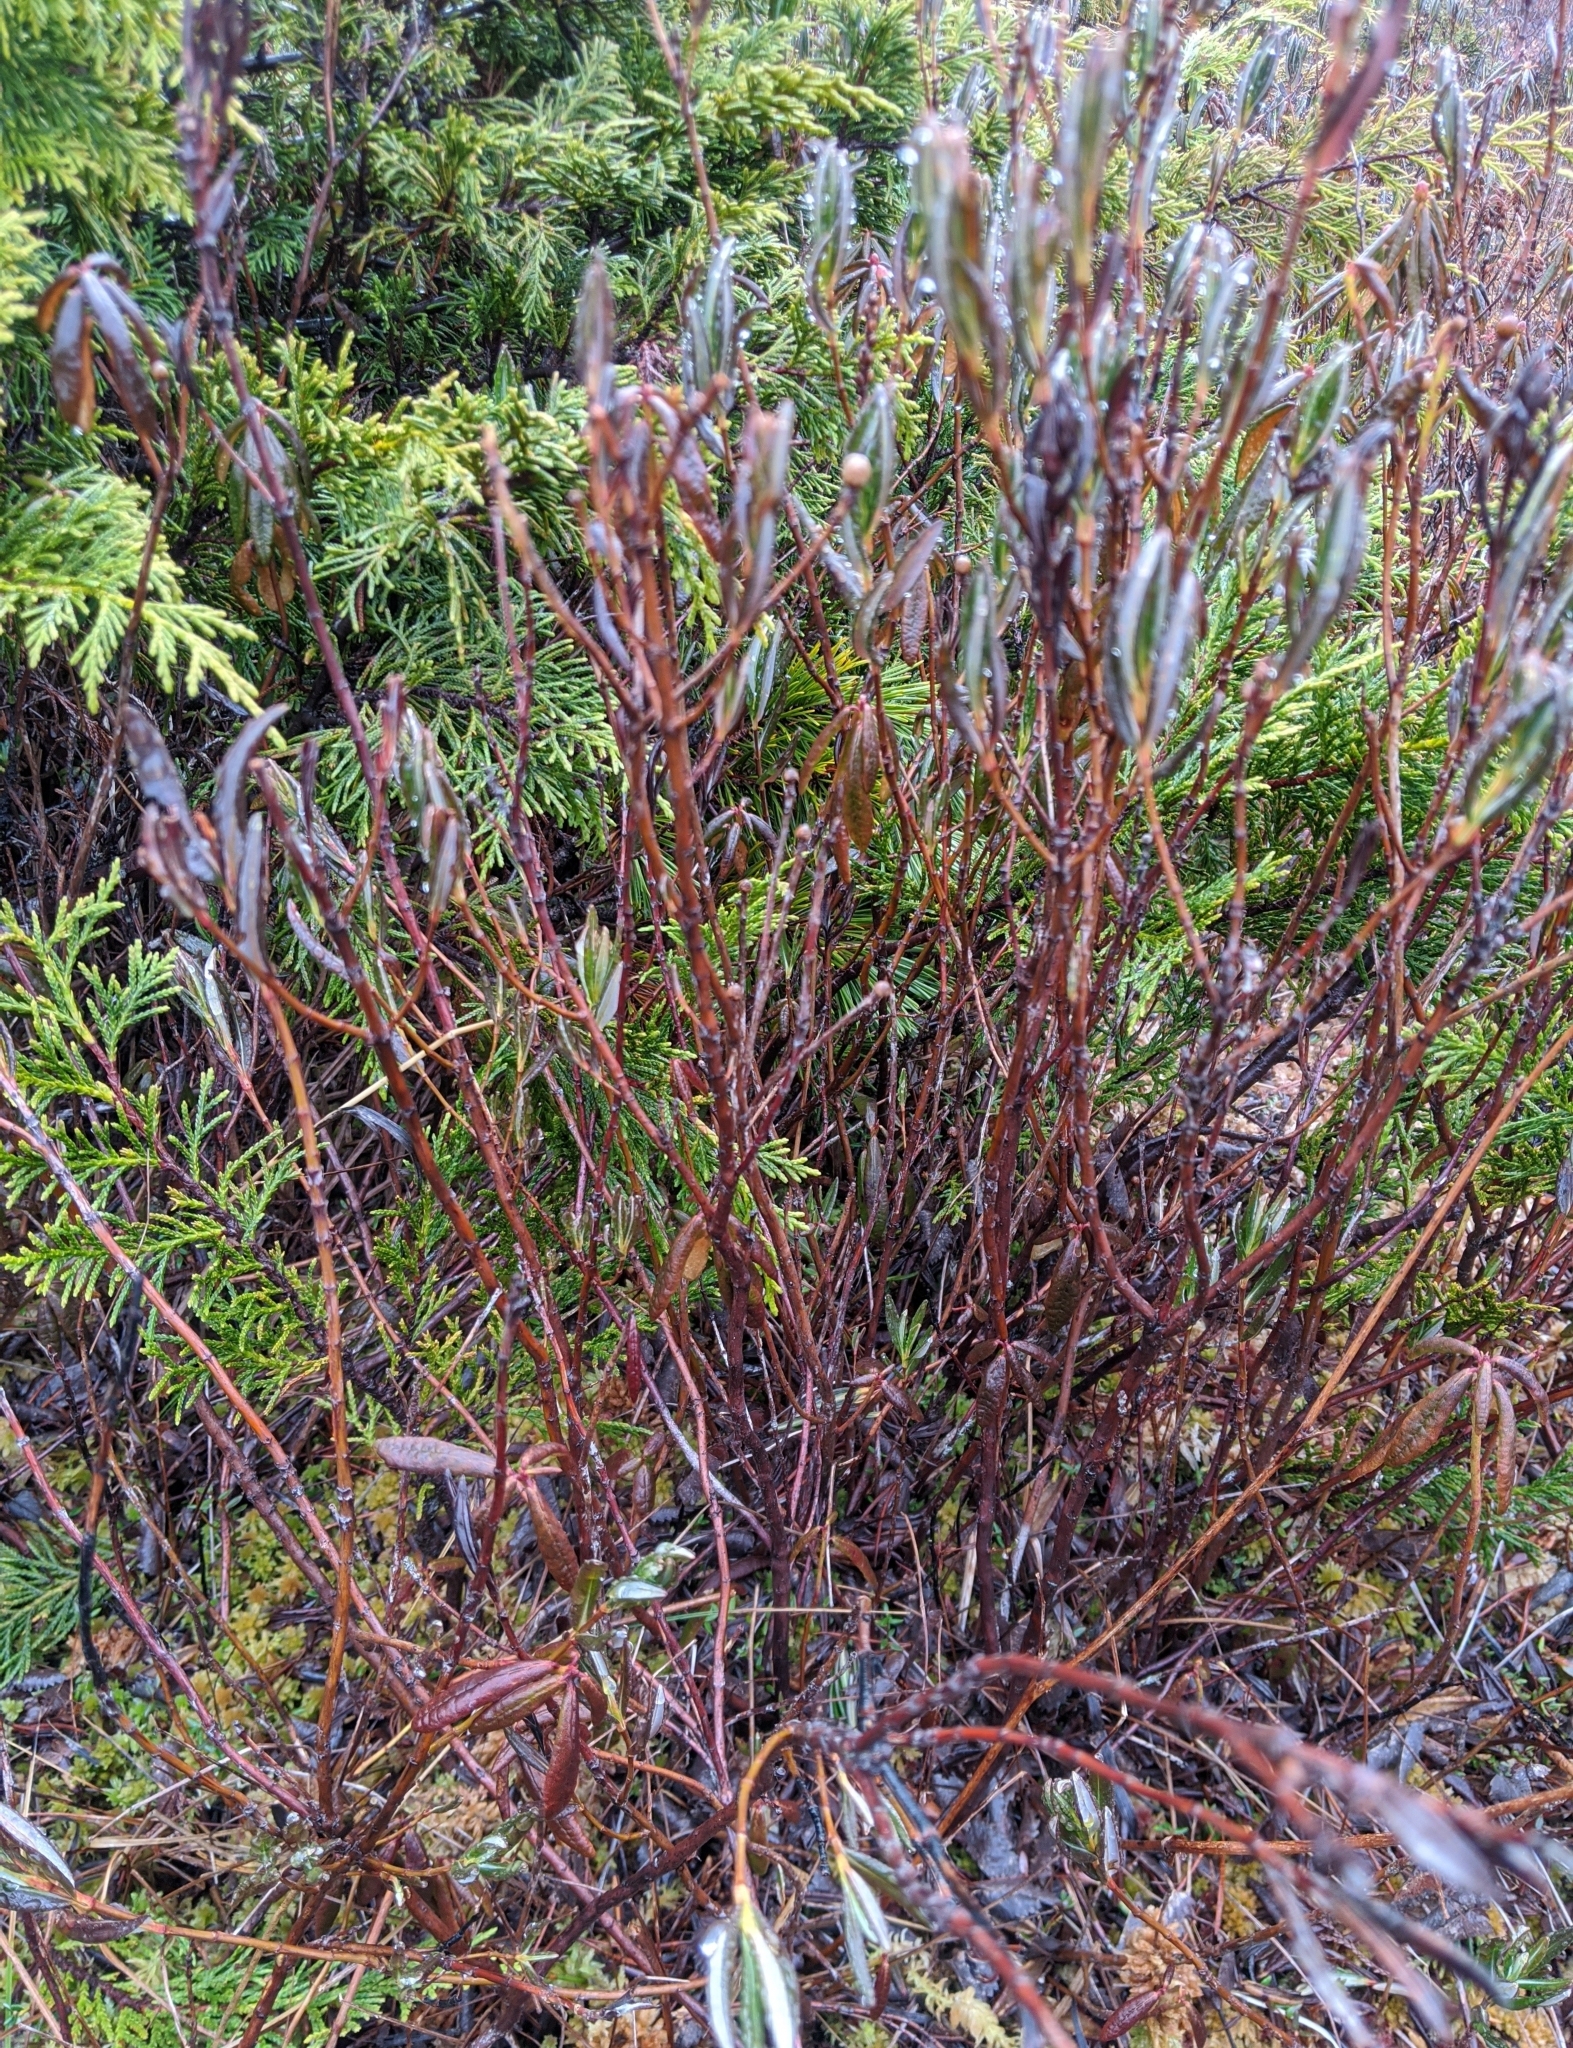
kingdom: Plantae
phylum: Tracheophyta
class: Magnoliopsida
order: Ericales
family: Ericaceae
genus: Kalmia
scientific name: Kalmia microphylla
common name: Alpine bog laurel
